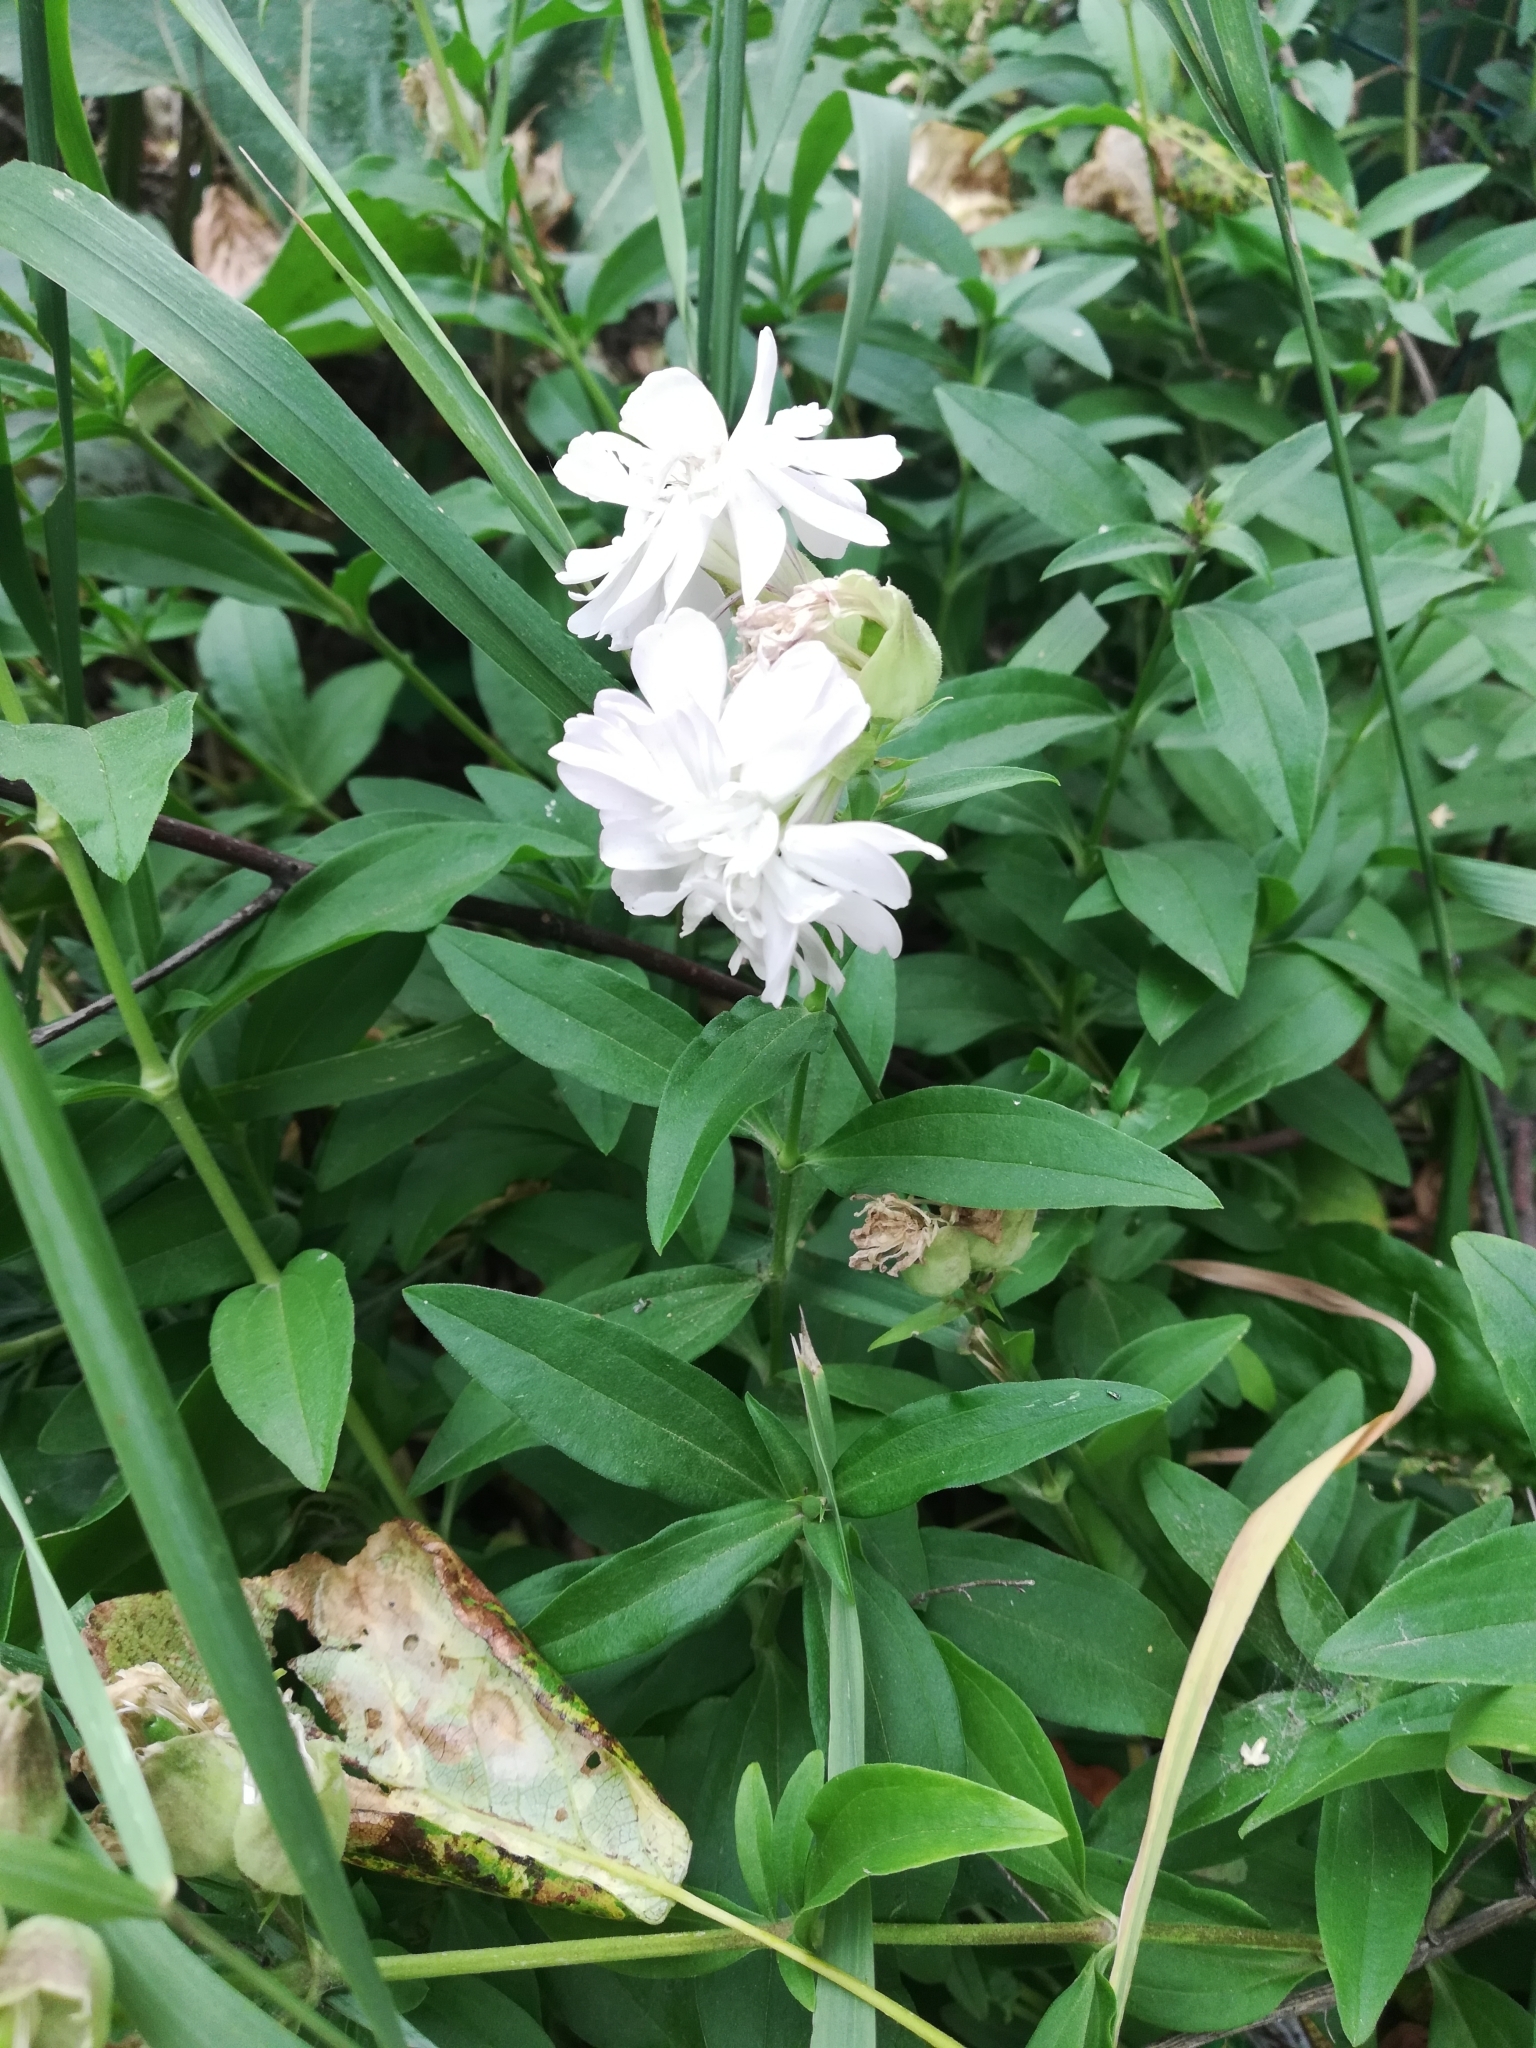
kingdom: Plantae
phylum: Tracheophyta
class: Magnoliopsida
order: Caryophyllales
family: Caryophyllaceae
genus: Saponaria
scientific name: Saponaria officinalis
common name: Soapwort
